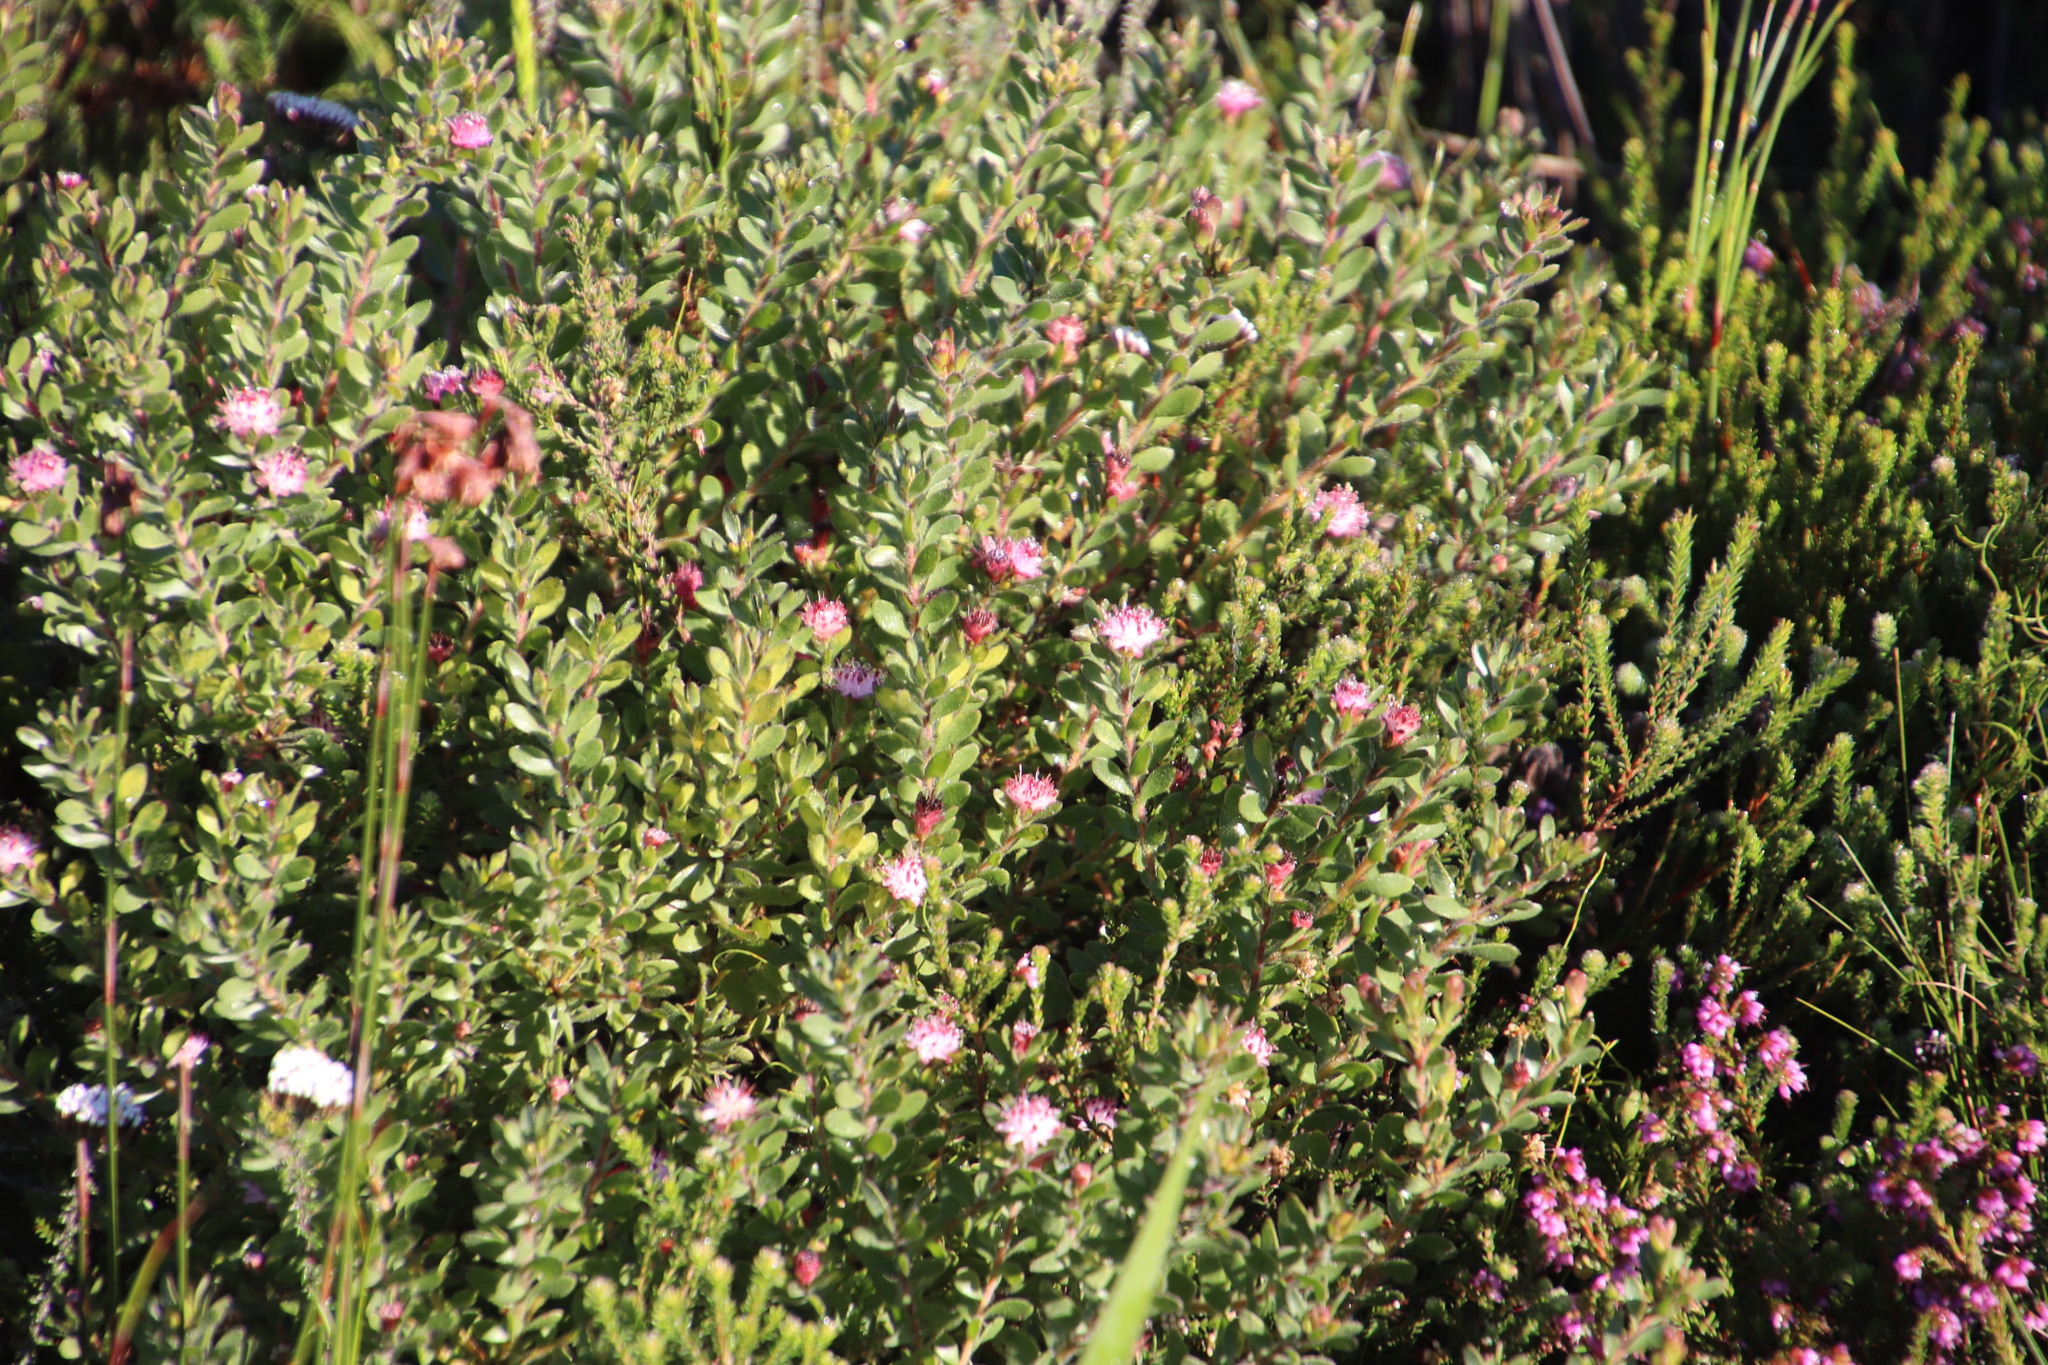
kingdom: Plantae
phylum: Tracheophyta
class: Magnoliopsida
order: Proteales
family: Proteaceae
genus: Diastella
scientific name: Diastella divaricata
